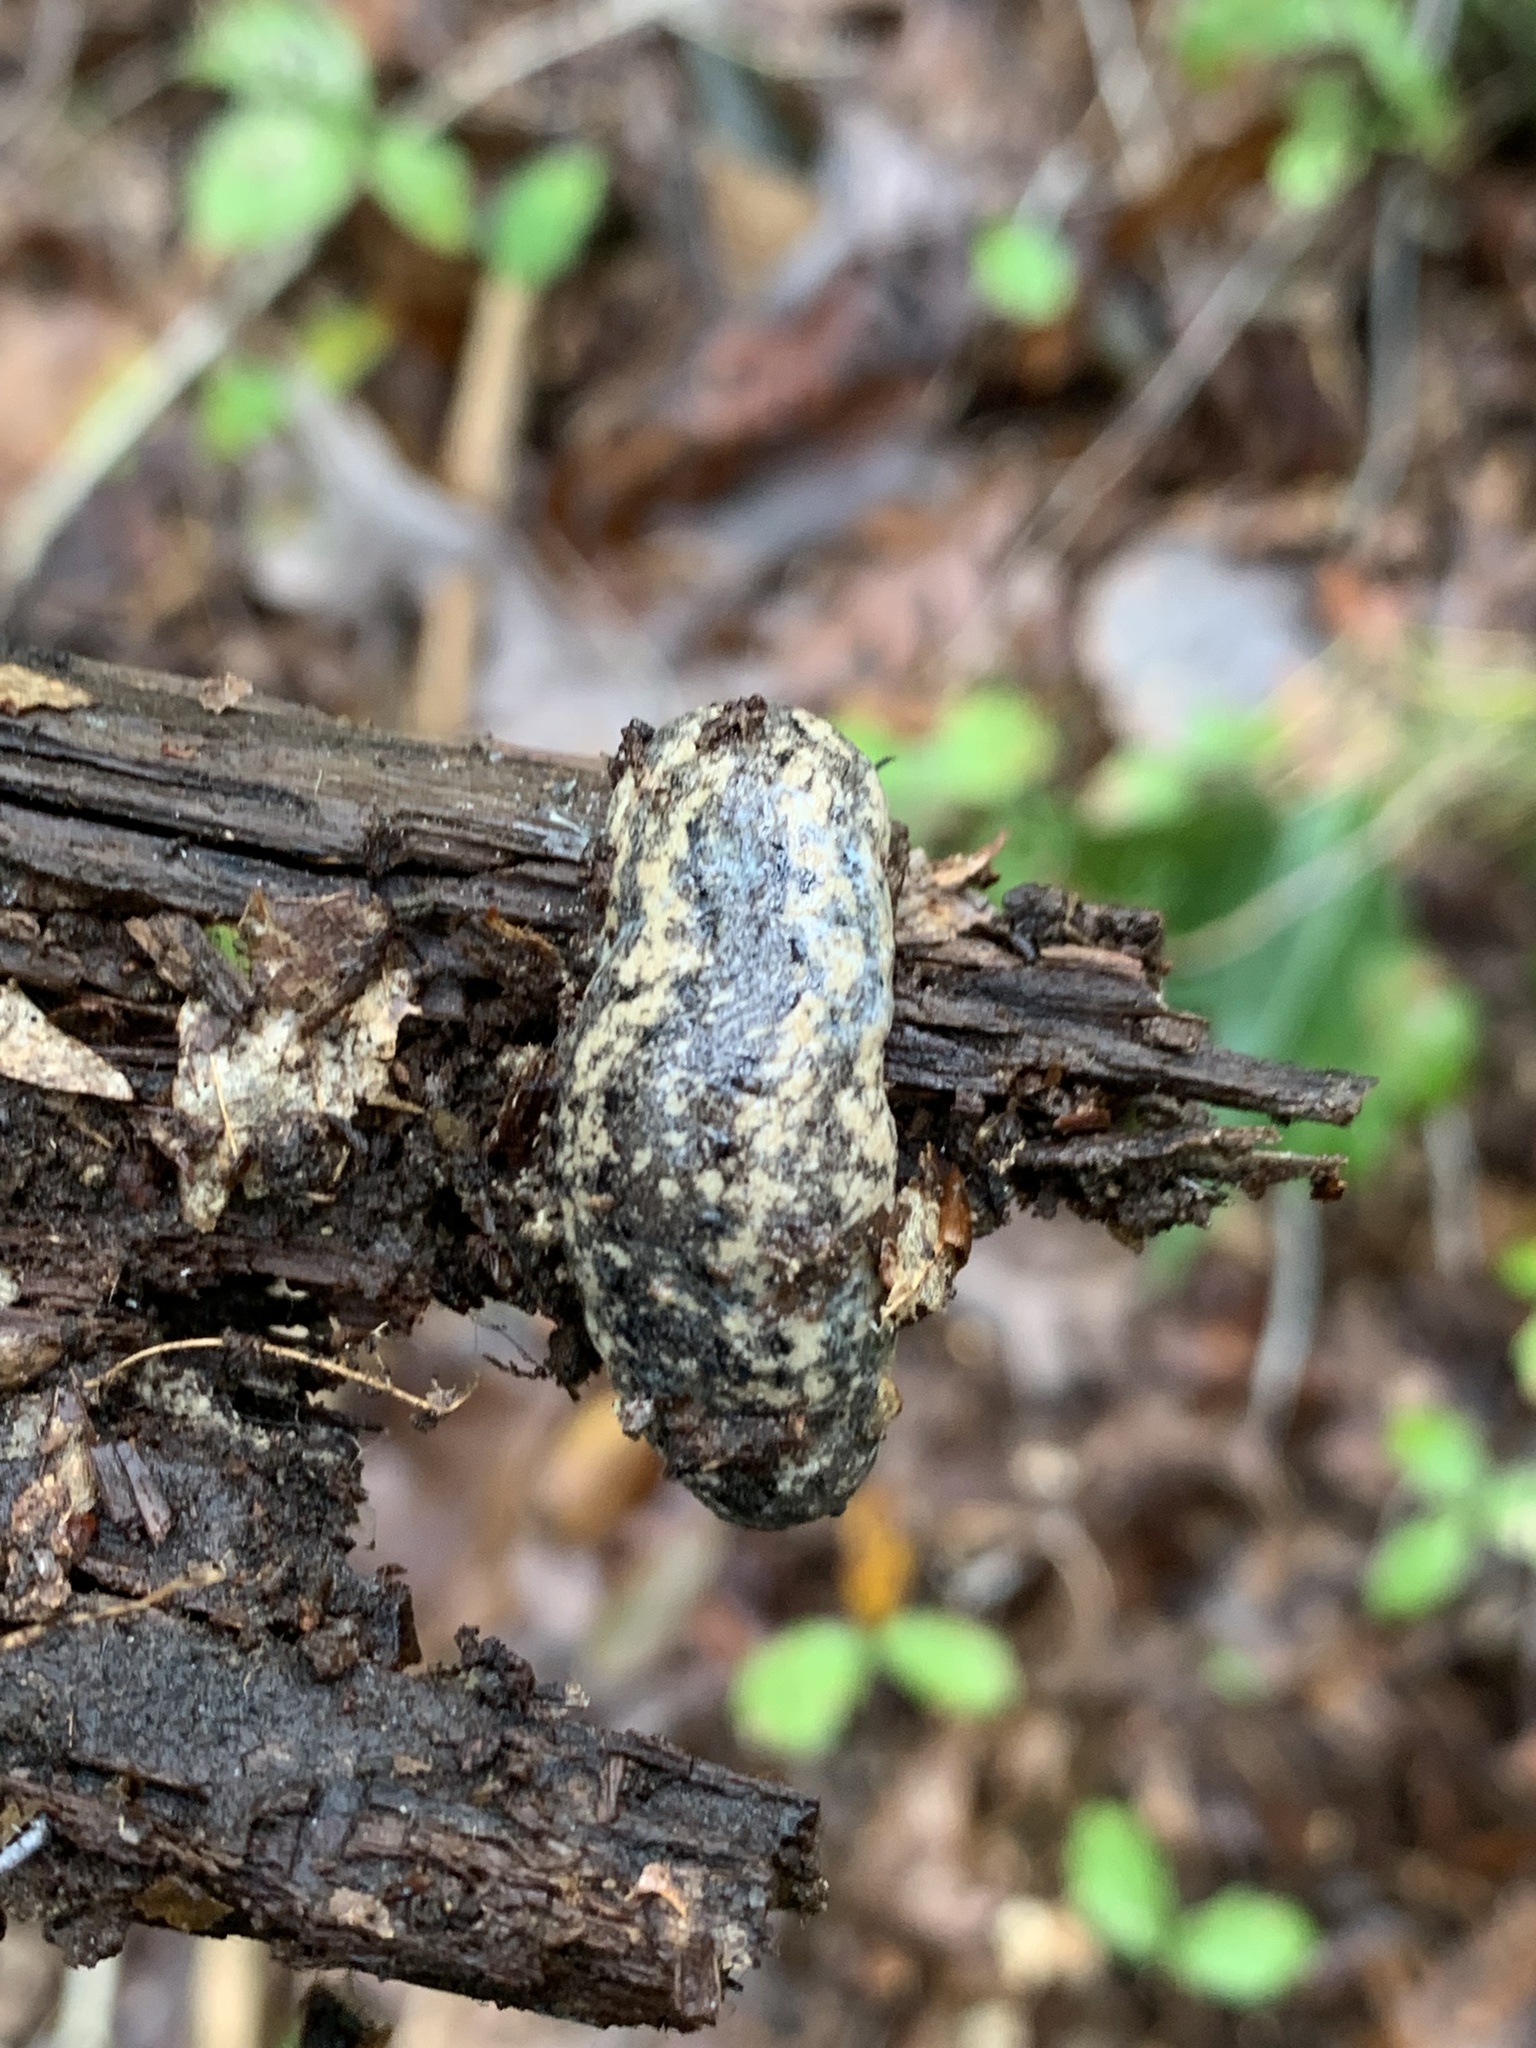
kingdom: Animalia
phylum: Mollusca
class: Gastropoda
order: Stylommatophora
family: Philomycidae
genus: Philomycus
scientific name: Philomycus carolinianus
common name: Carolina mantleslug
